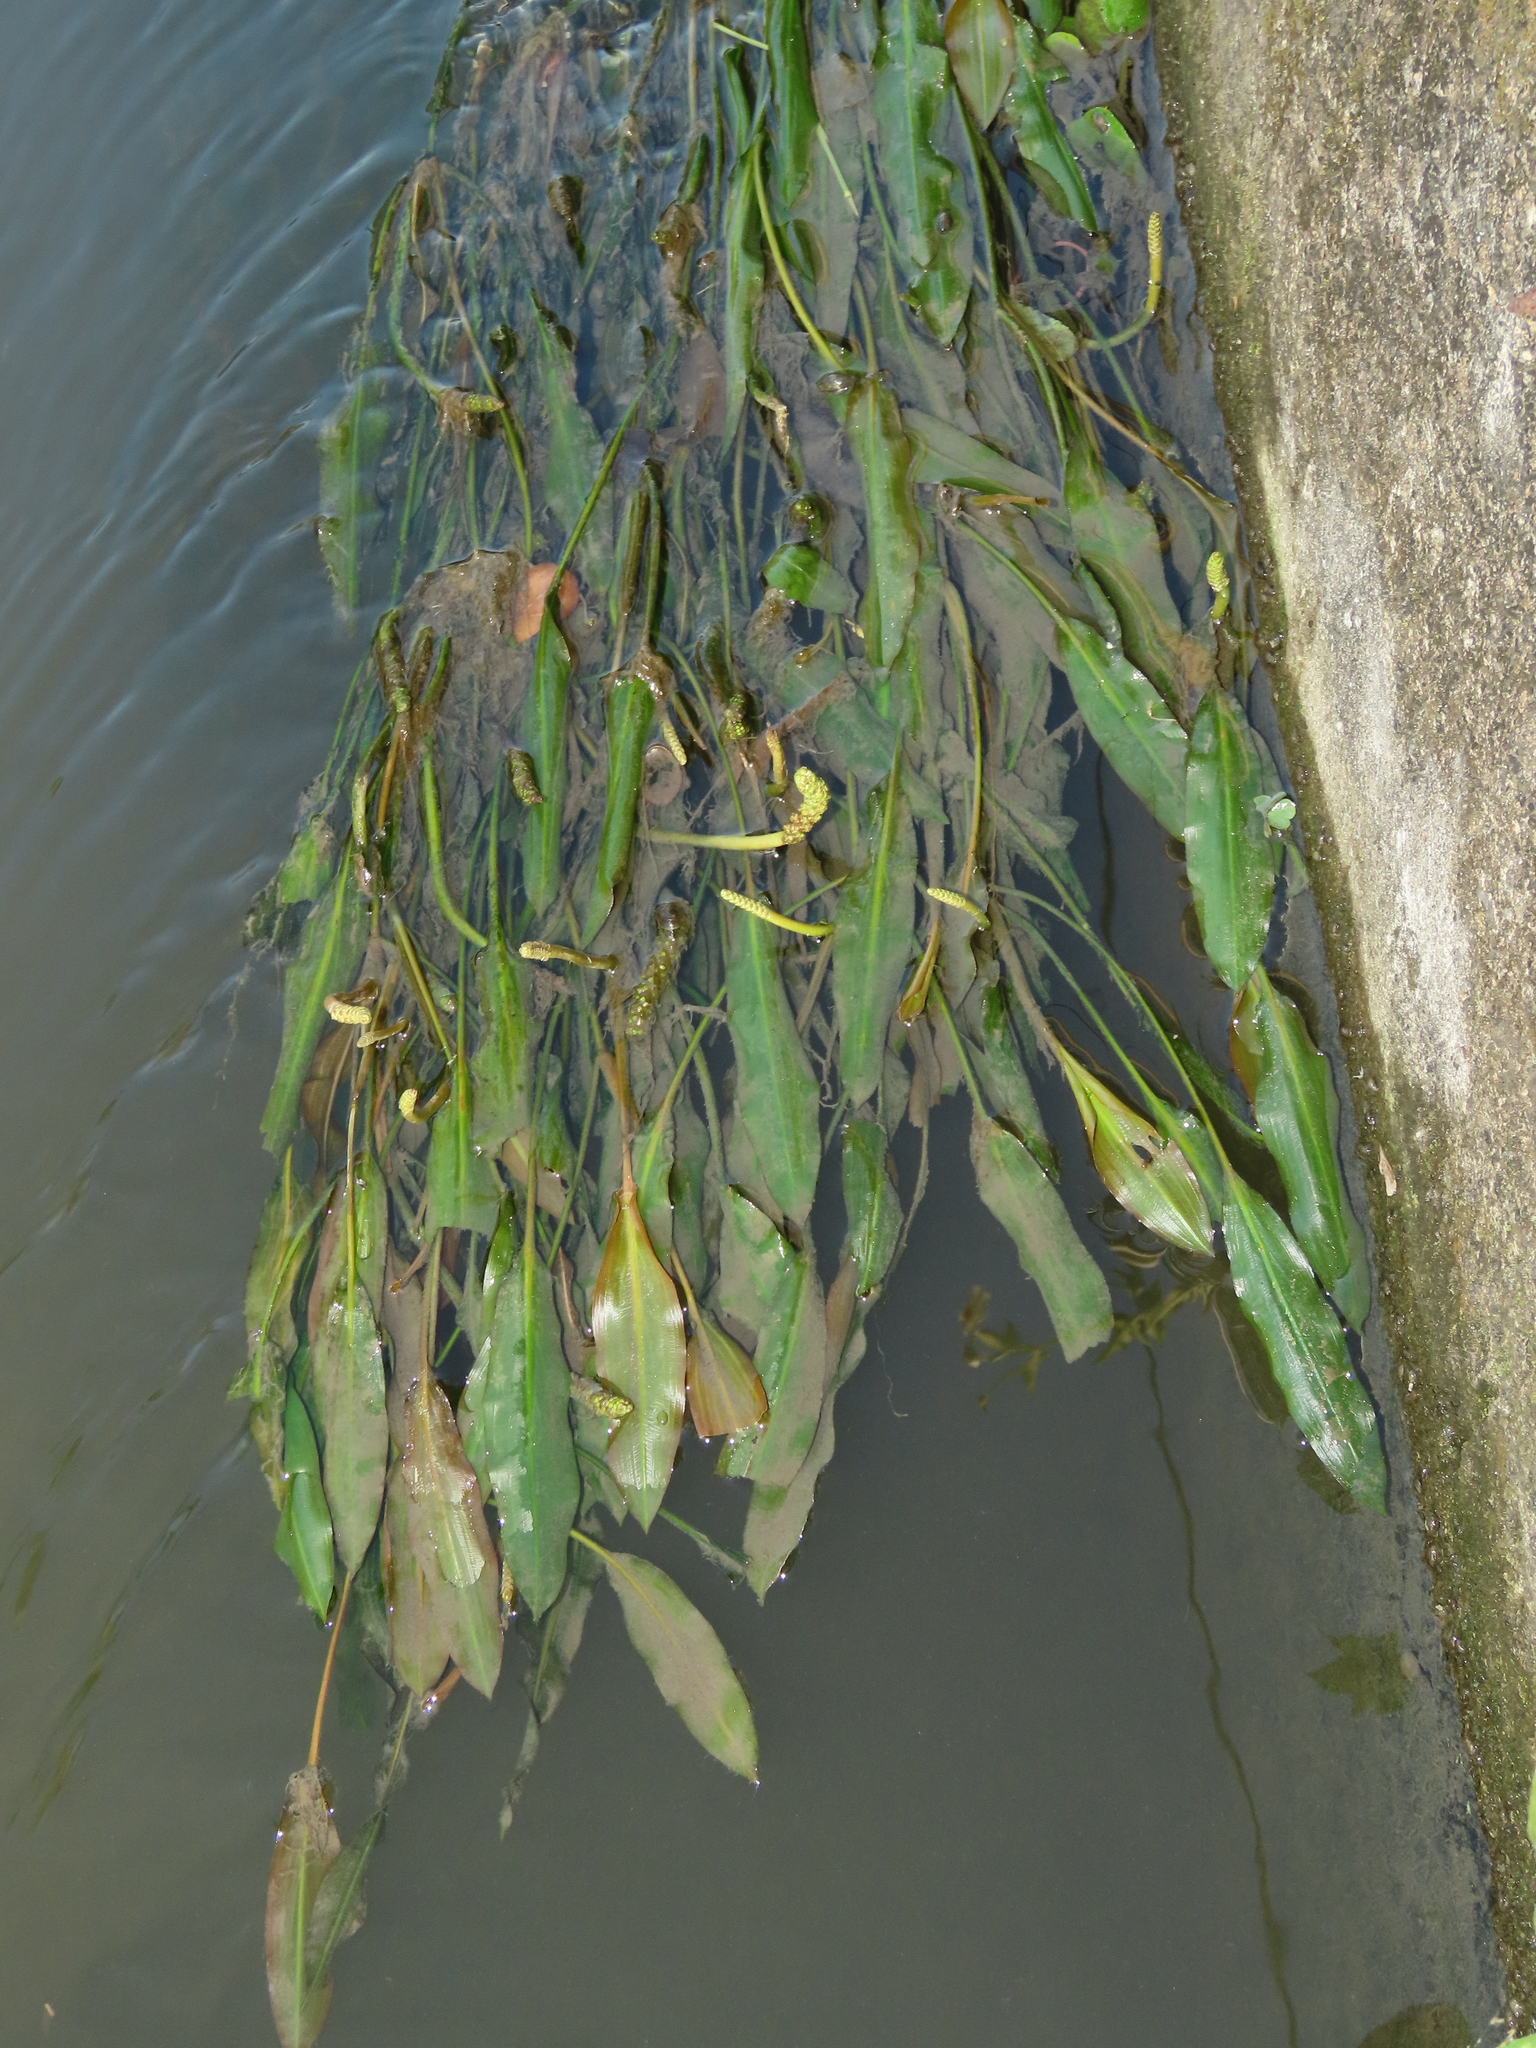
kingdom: Plantae
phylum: Tracheophyta
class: Liliopsida
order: Alismatales
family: Potamogetonaceae
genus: Potamogeton
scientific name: Potamogeton wrightii
